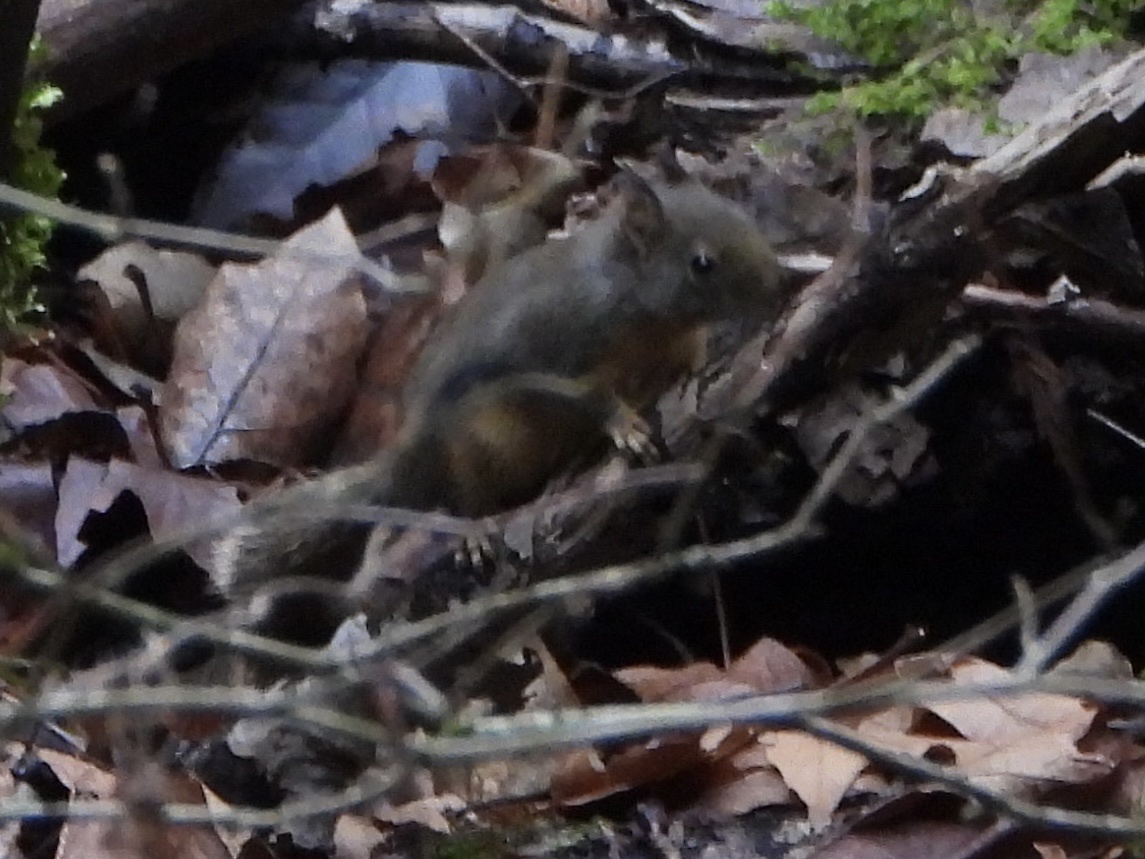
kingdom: Animalia
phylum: Chordata
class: Mammalia
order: Rodentia
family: Sciuridae
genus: Tamiasciurus
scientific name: Tamiasciurus douglasii
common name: Douglas's squirrel
